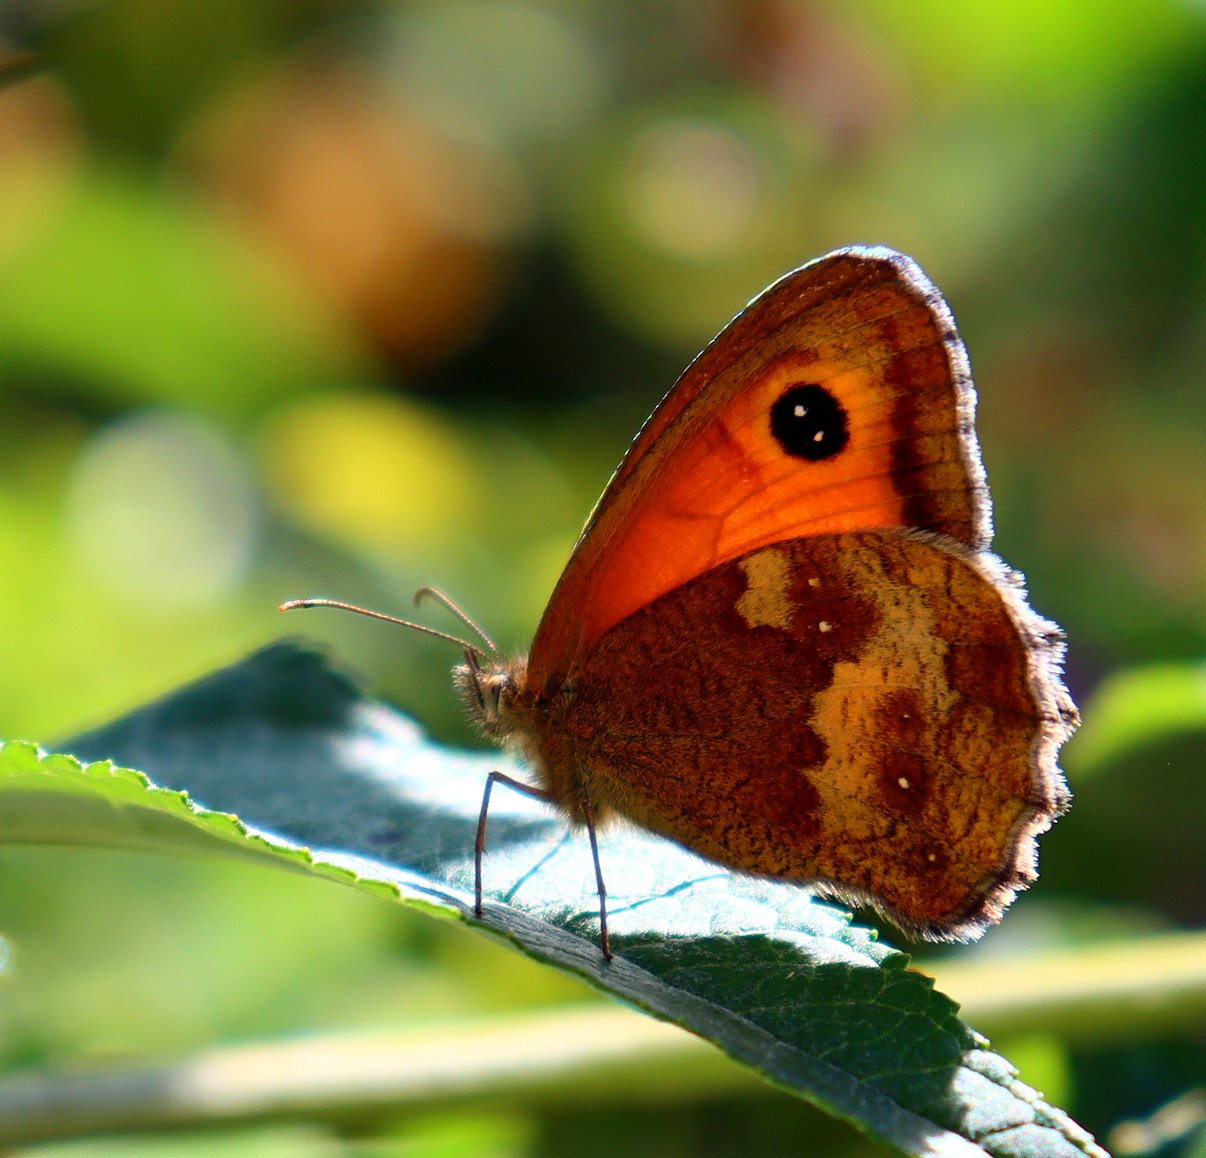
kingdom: Animalia
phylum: Arthropoda
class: Insecta
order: Lepidoptera
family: Nymphalidae
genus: Pyronia
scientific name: Pyronia tithonus
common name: Gatekeeper
